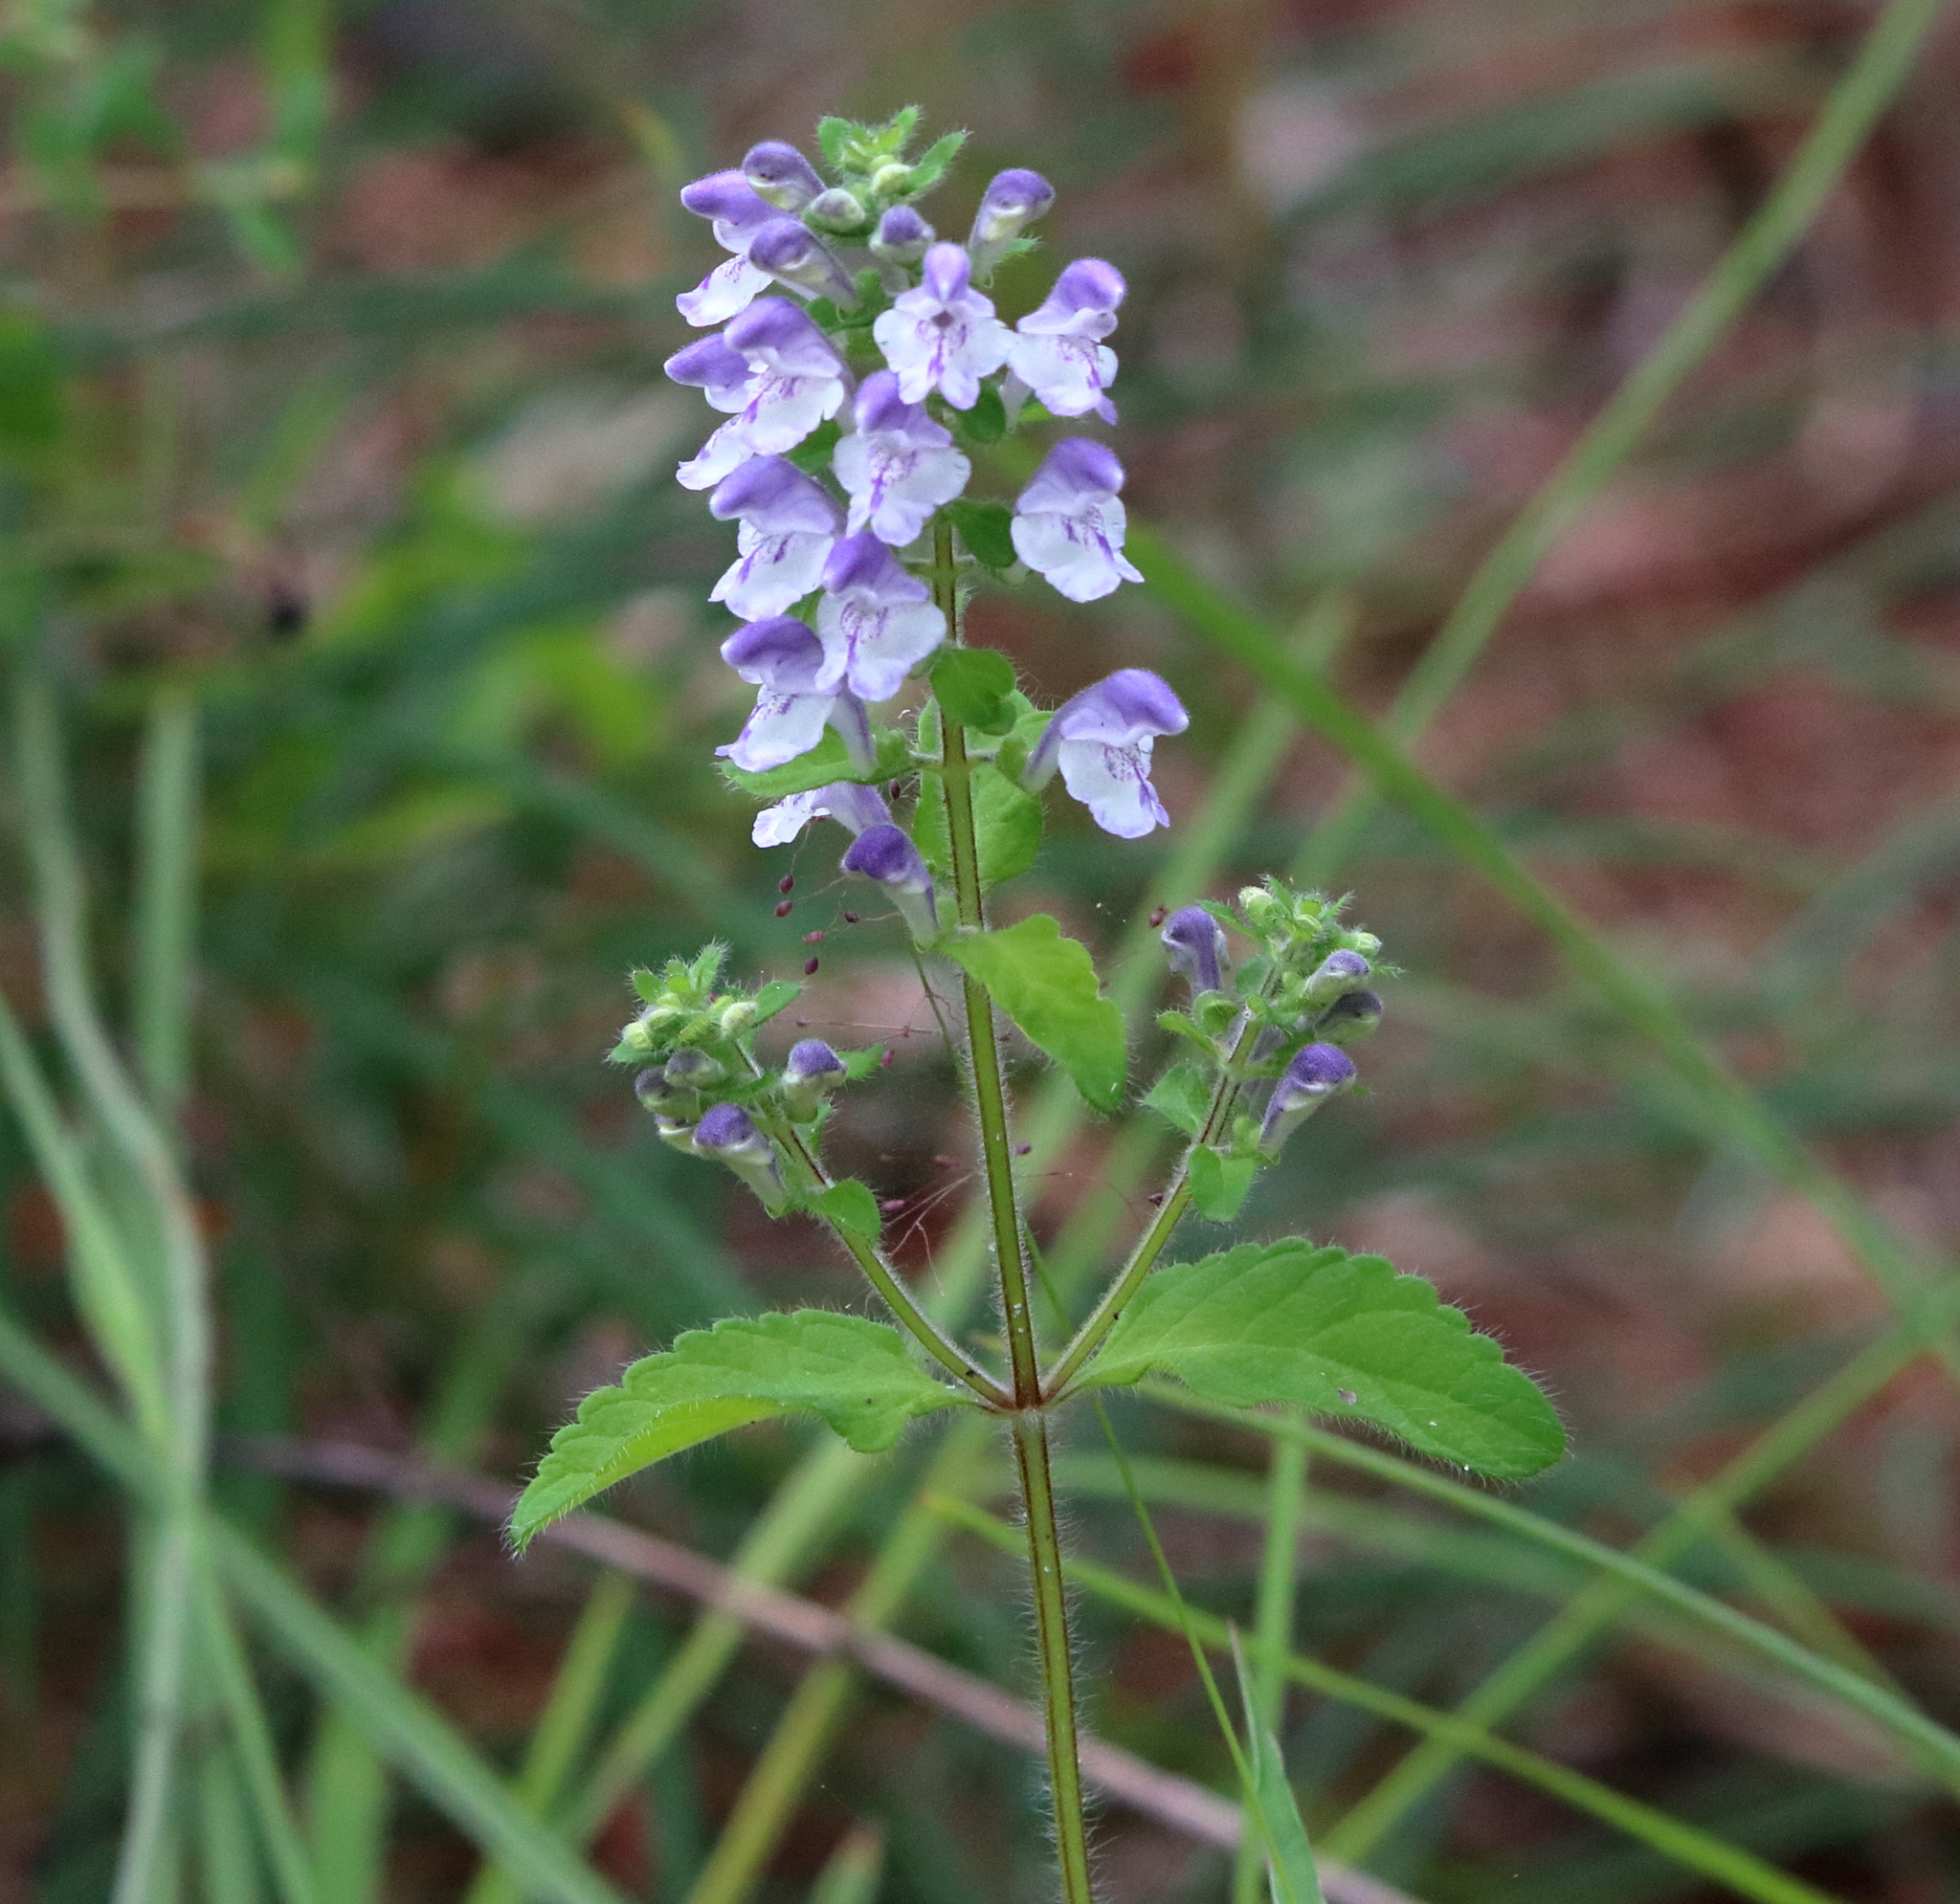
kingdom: Plantae
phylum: Tracheophyta
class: Magnoliopsida
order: Lamiales
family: Lamiaceae
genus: Scutellaria
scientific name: Scutellaria elliptica
